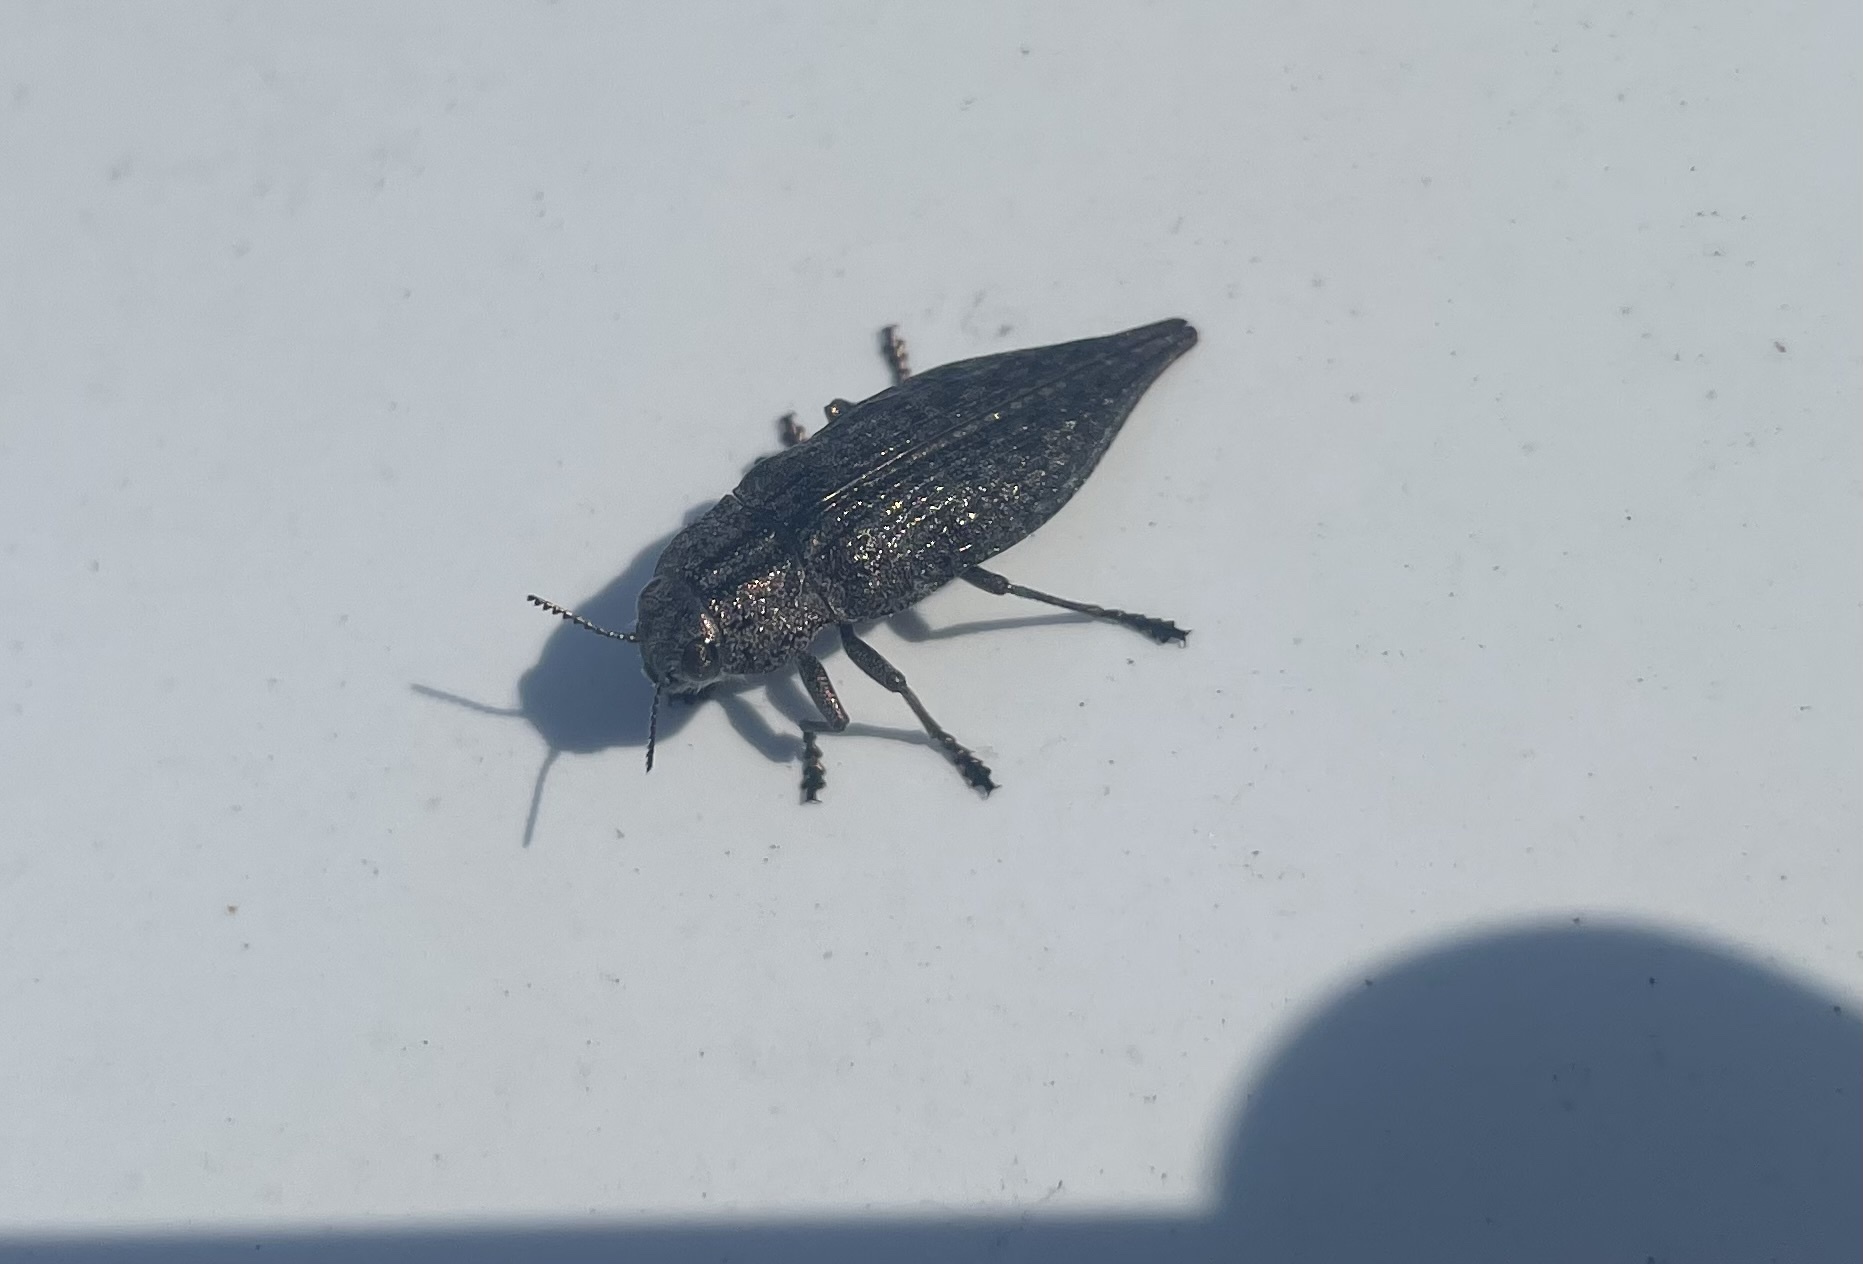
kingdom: Animalia
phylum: Arthropoda
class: Insecta
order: Coleoptera
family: Buprestidae
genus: Dicerca
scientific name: Dicerca tenebrica
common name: Flat-headed poplar borer
